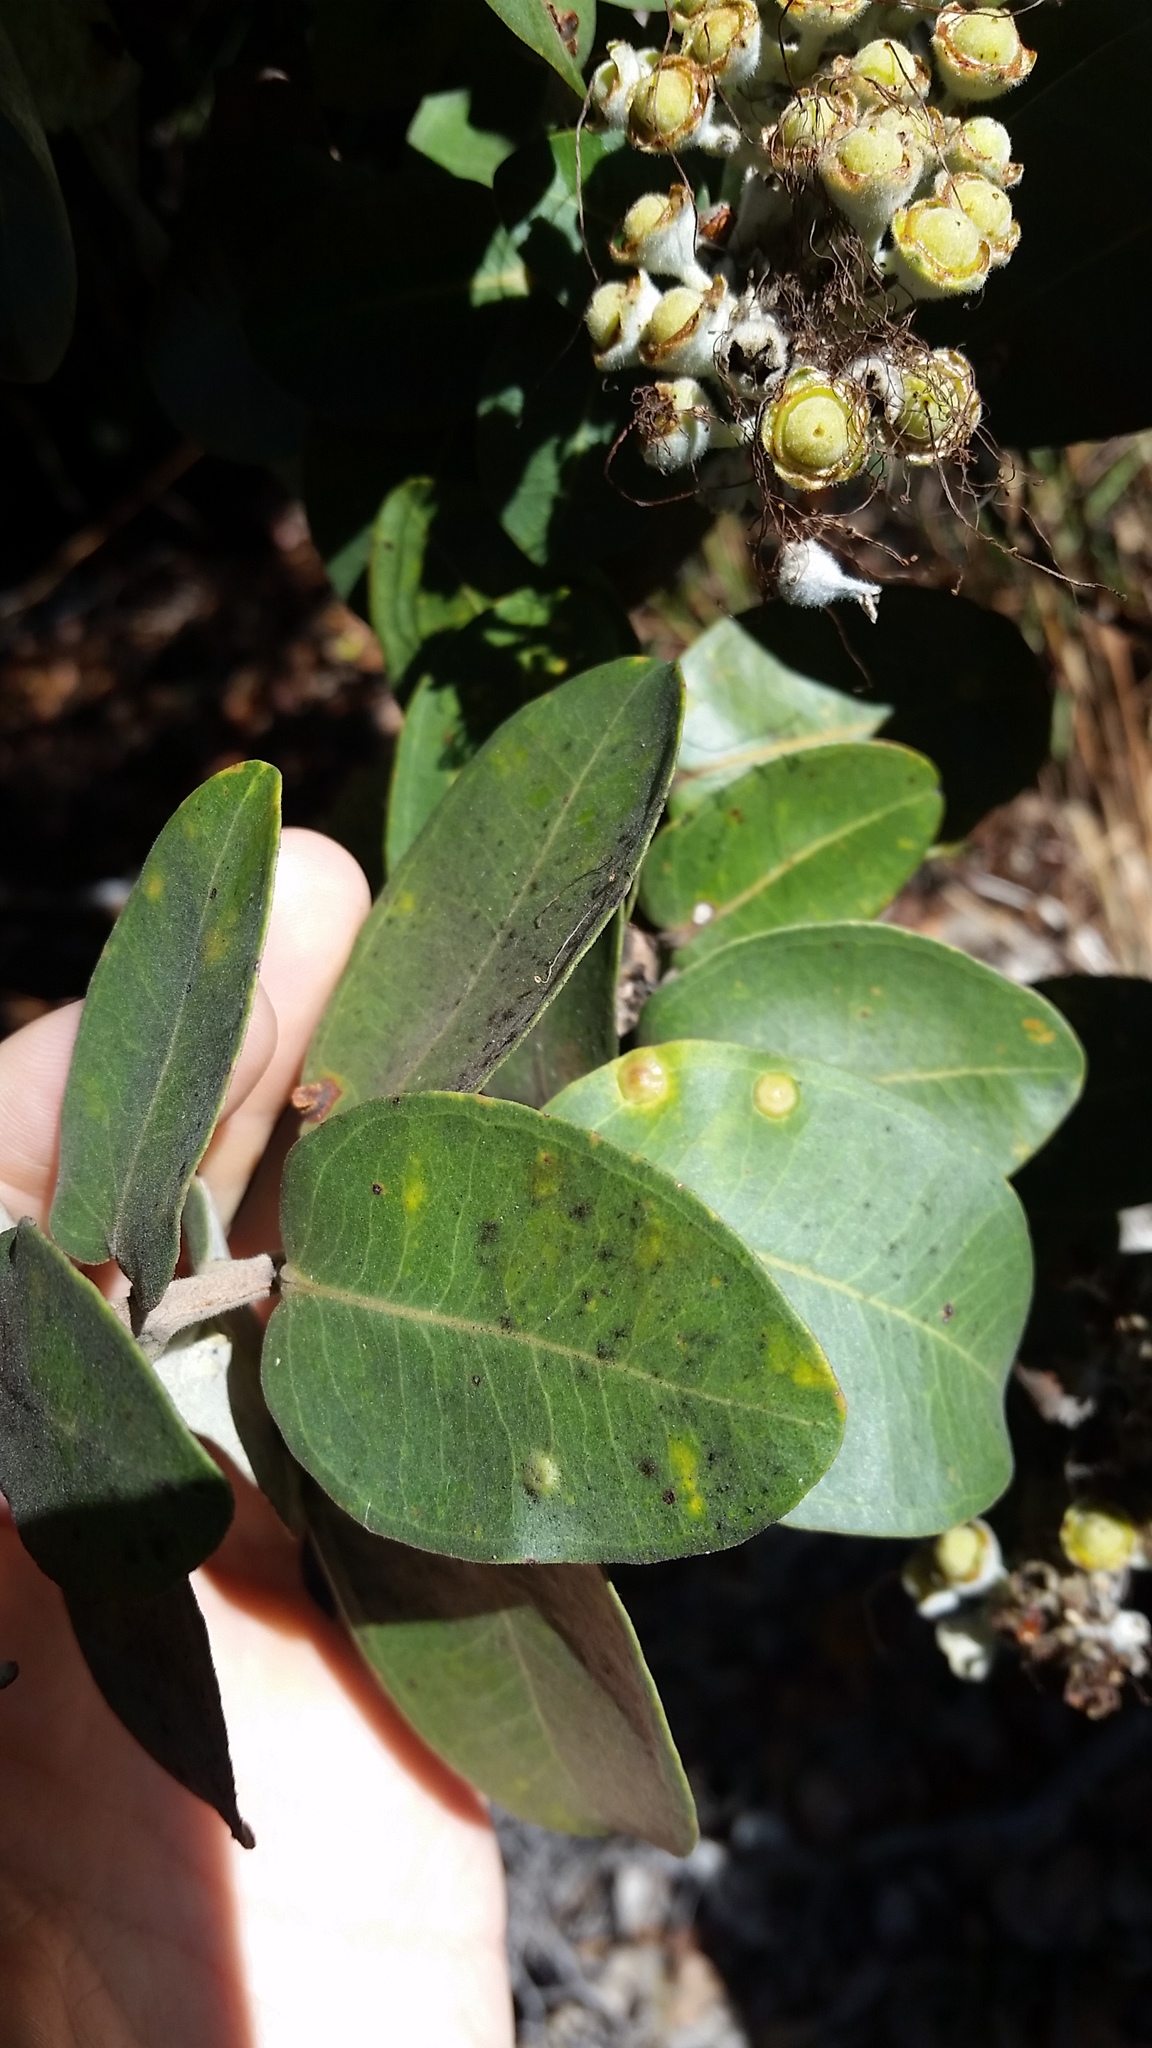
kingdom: Plantae
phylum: Tracheophyta
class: Magnoliopsida
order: Myrtales
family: Myrtaceae
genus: Metrosideros
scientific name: Metrosideros polymorpha
